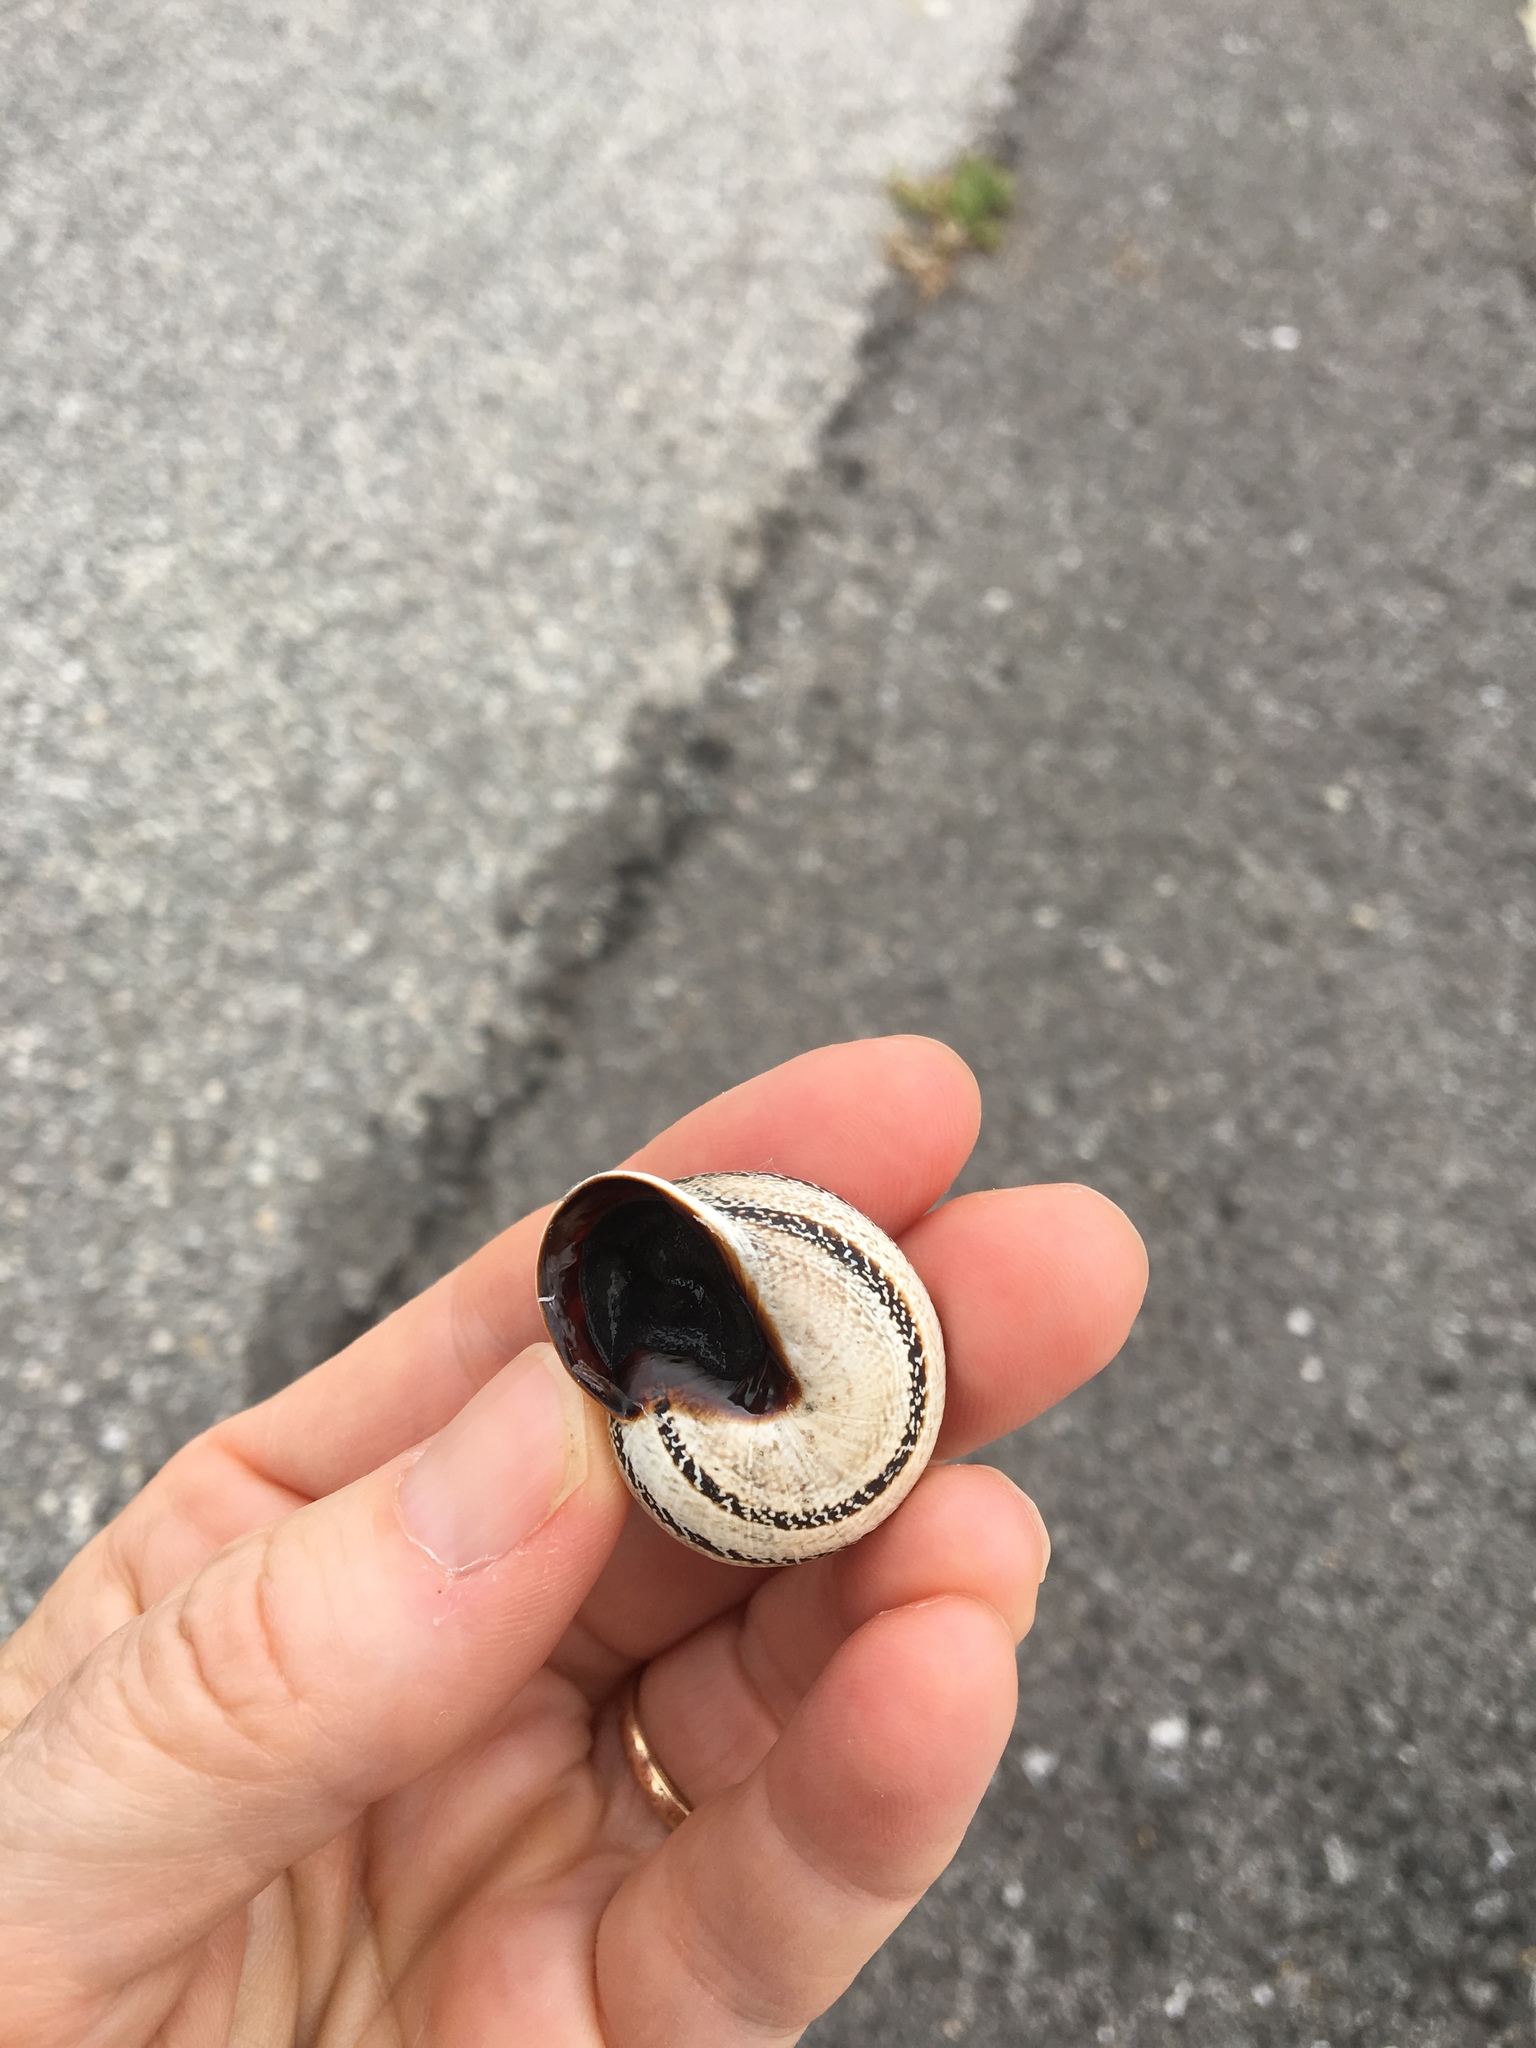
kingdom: Animalia
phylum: Mollusca
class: Gastropoda
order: Stylommatophora
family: Helicidae
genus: Otala
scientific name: Otala lactea
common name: Milk snail
